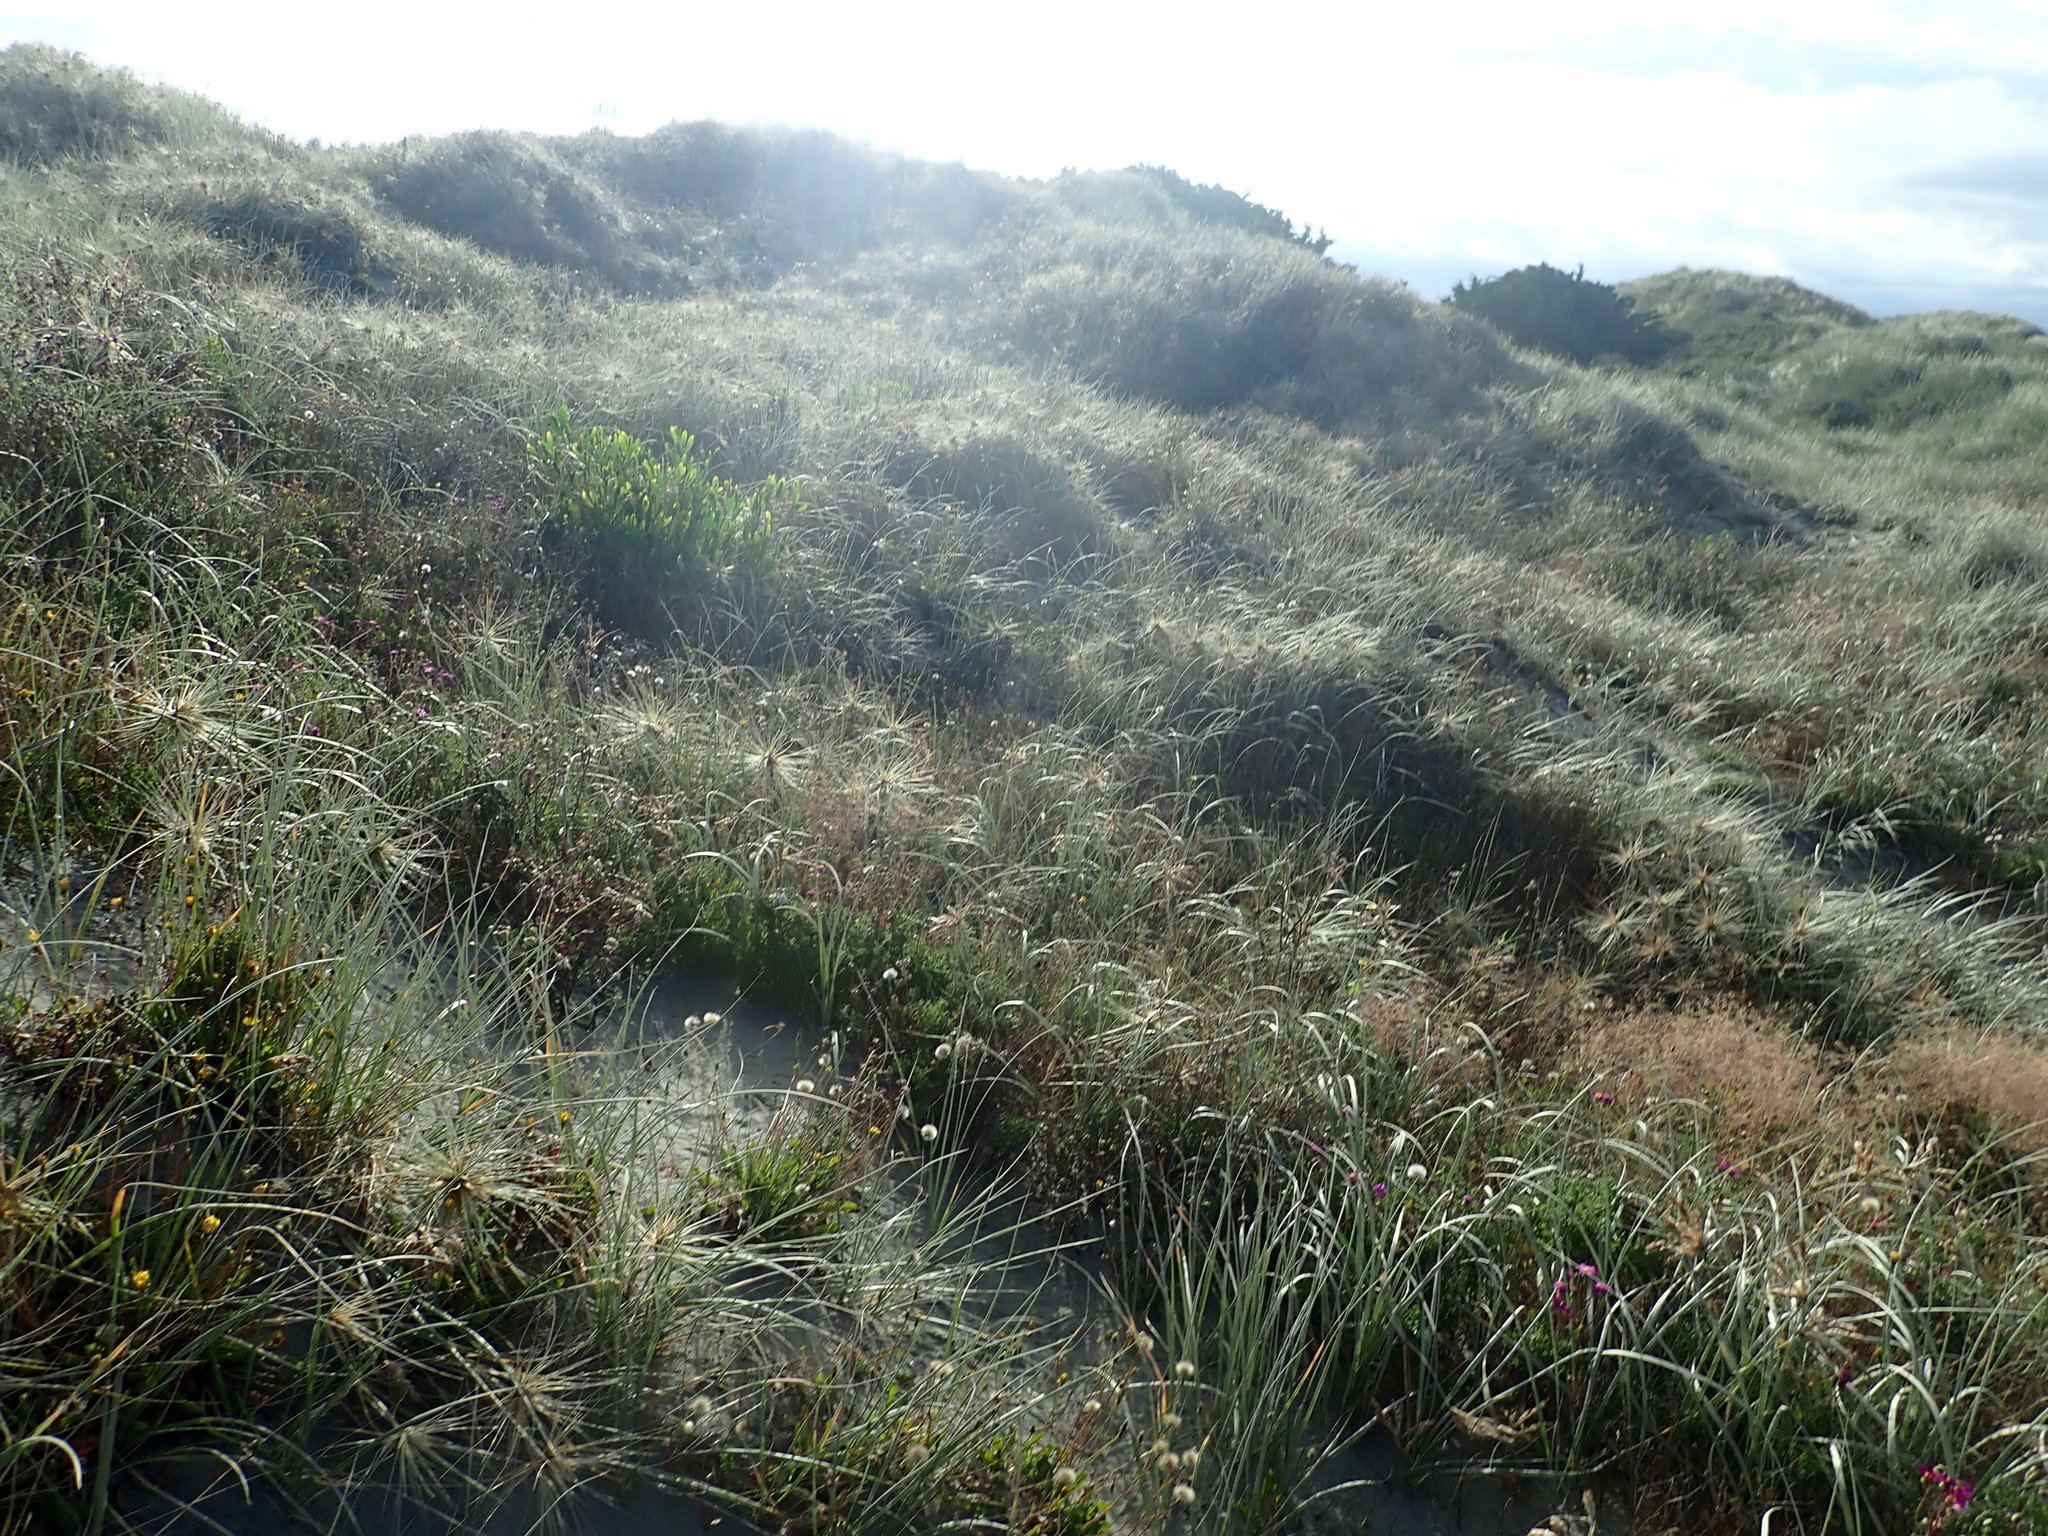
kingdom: Plantae
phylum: Tracheophyta
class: Magnoliopsida
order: Fabales
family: Fabaceae
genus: Acacia
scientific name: Acacia longifolia
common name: Sydney golden wattle
